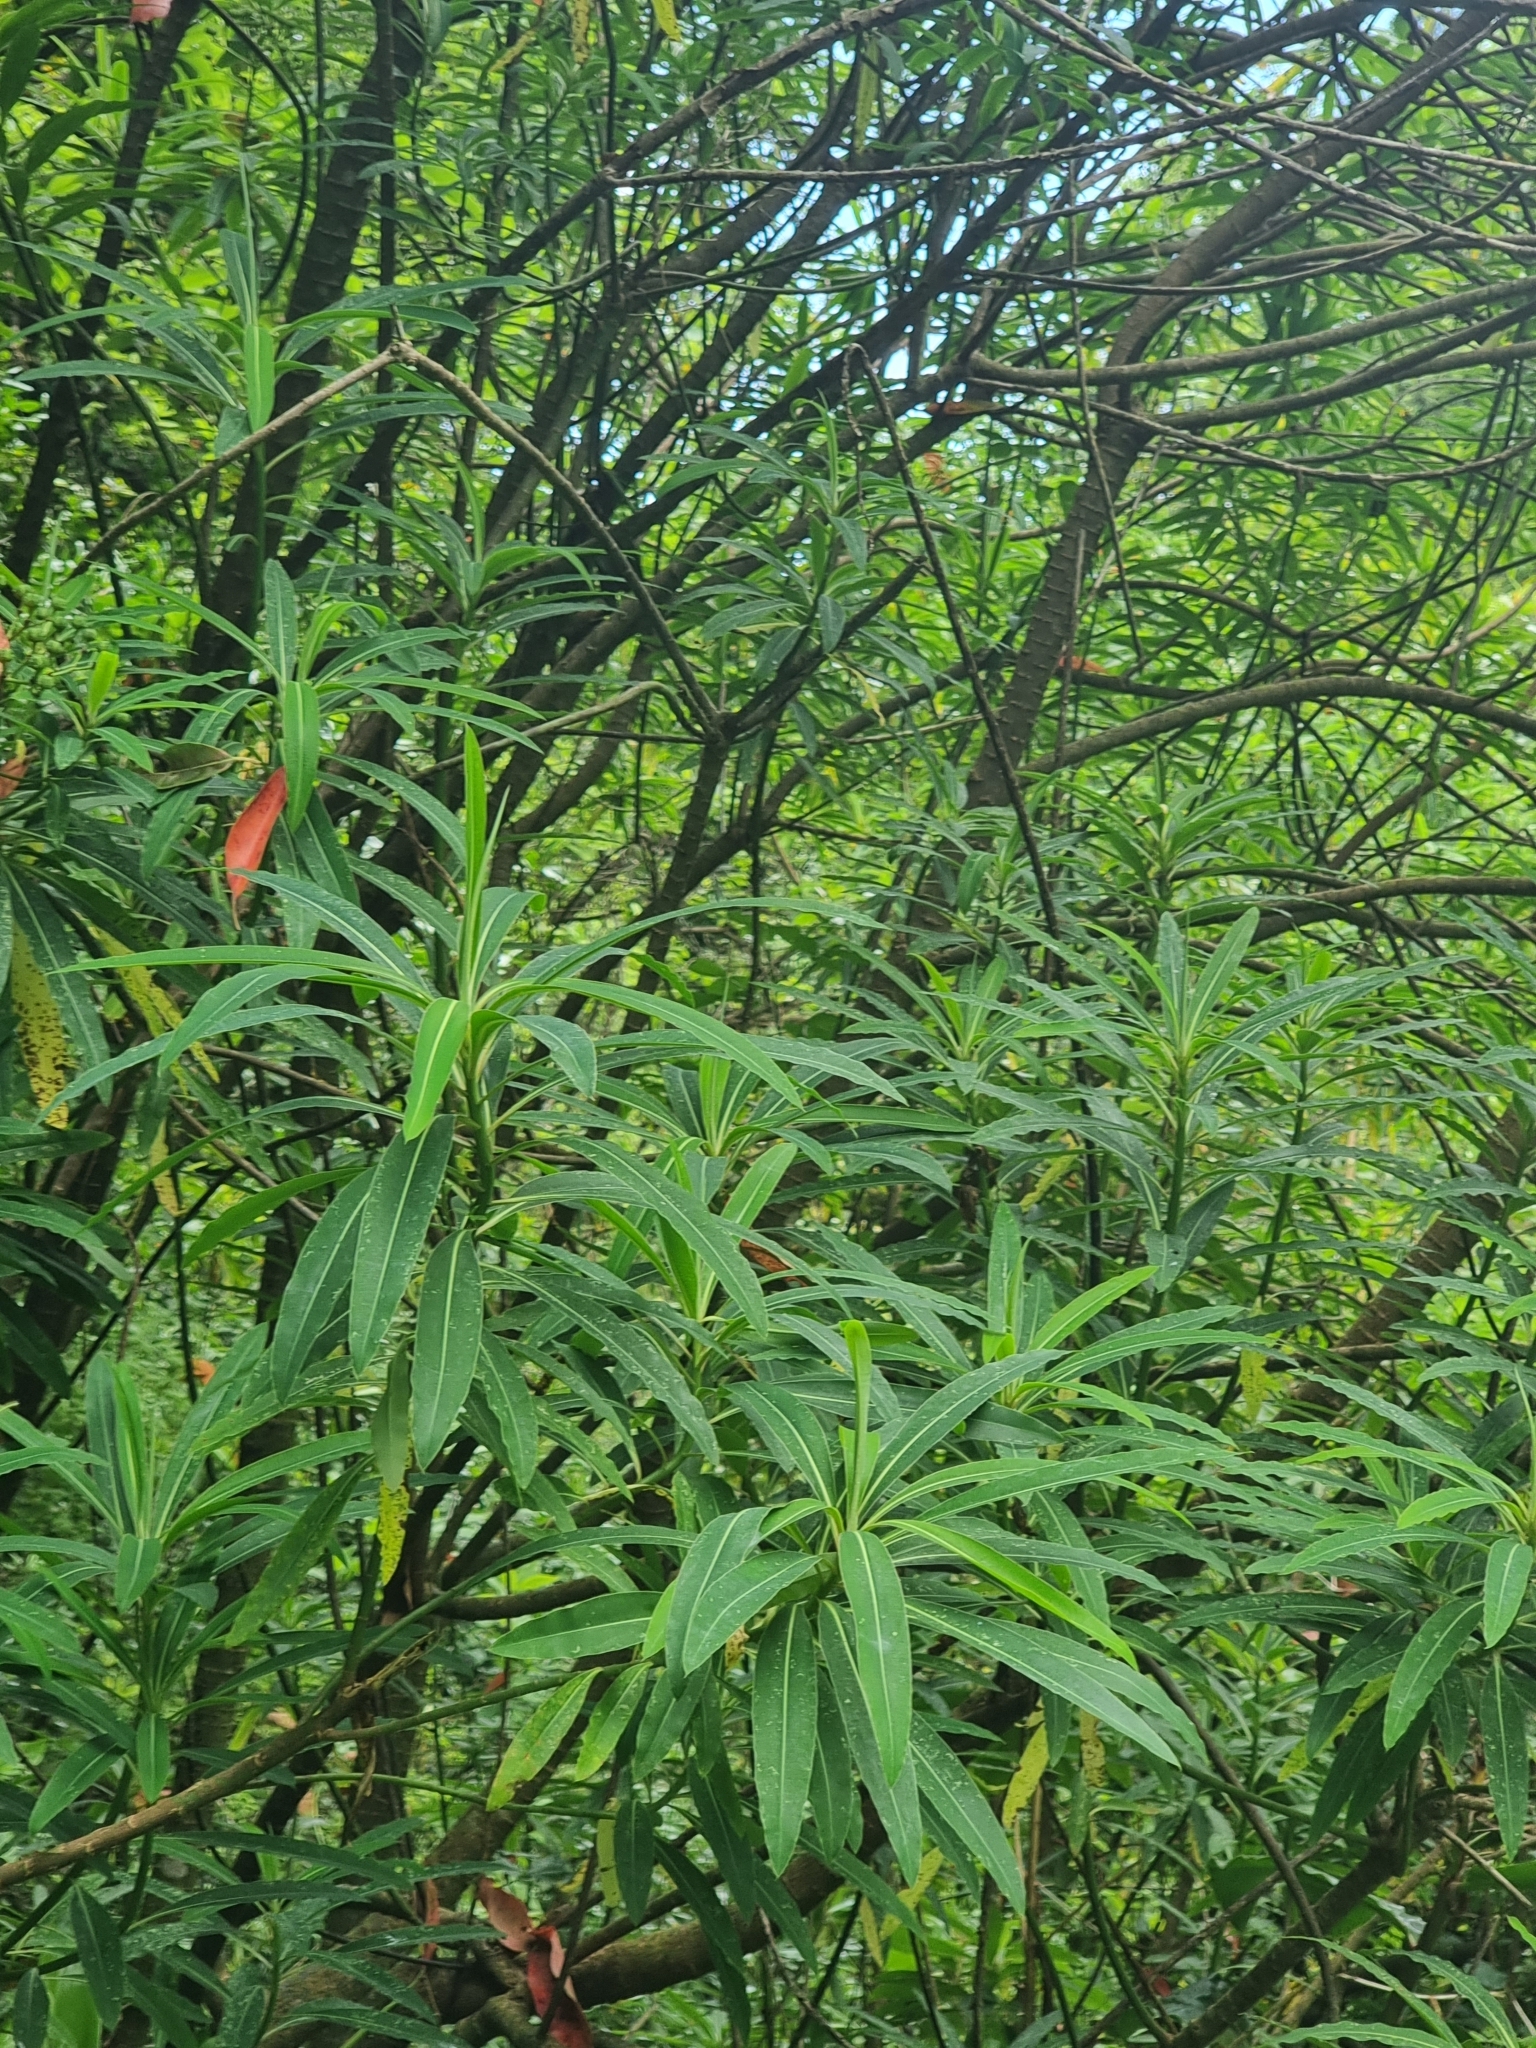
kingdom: Plantae
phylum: Tracheophyta
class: Magnoliopsida
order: Malpighiales
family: Euphorbiaceae
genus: Euphorbia
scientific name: Euphorbia mellifera
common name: Canary spurge
